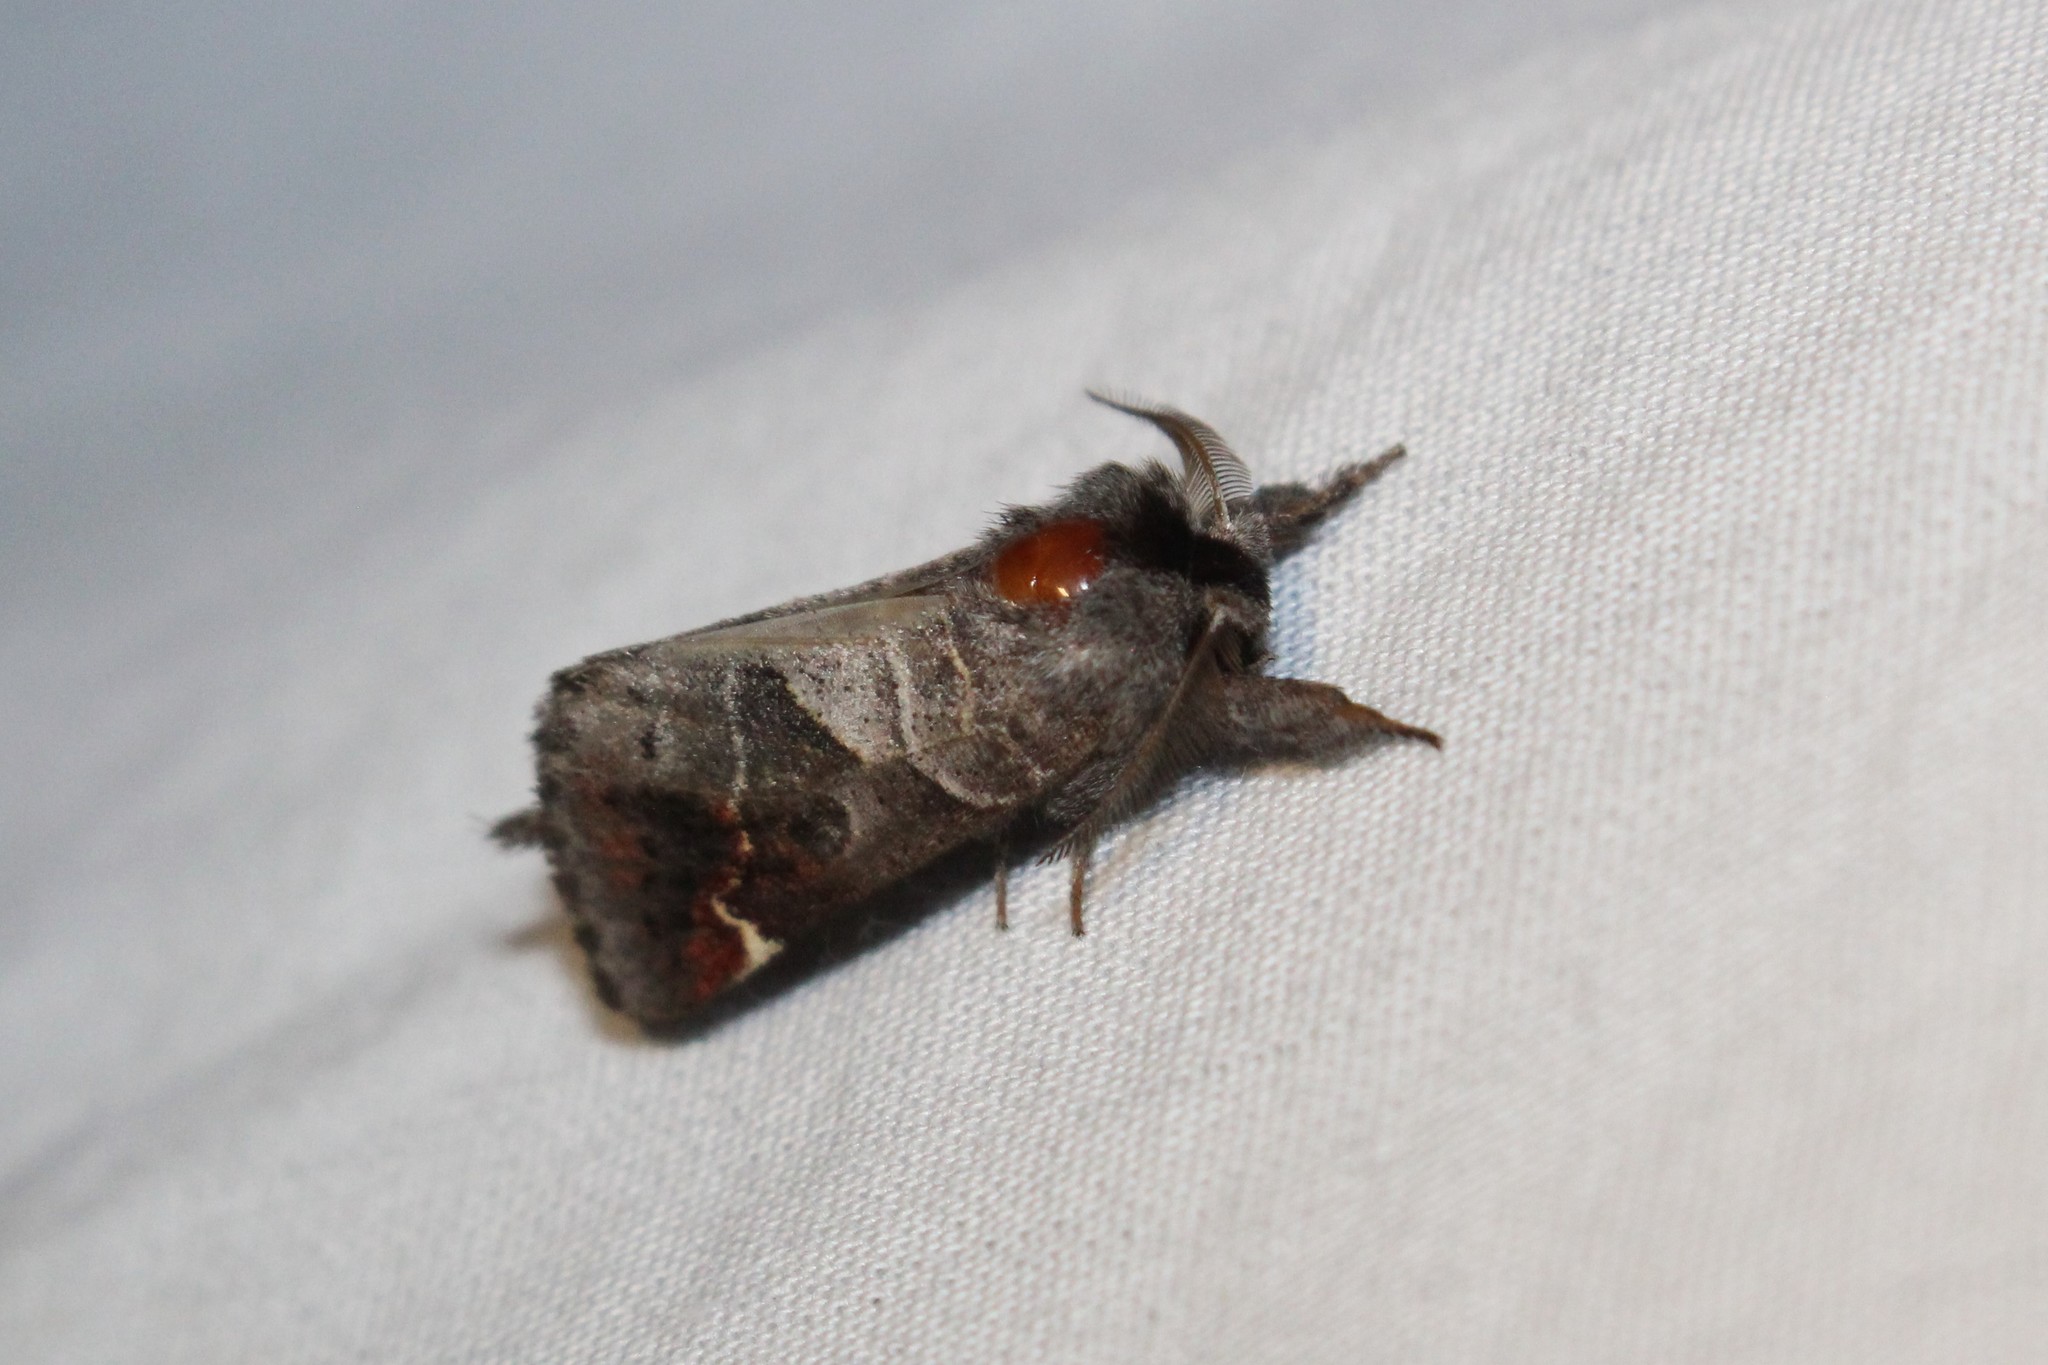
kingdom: Animalia
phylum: Arthropoda
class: Insecta
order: Lepidoptera
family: Notodontidae
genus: Clostera
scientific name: Clostera apicalis
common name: Apical prominent
